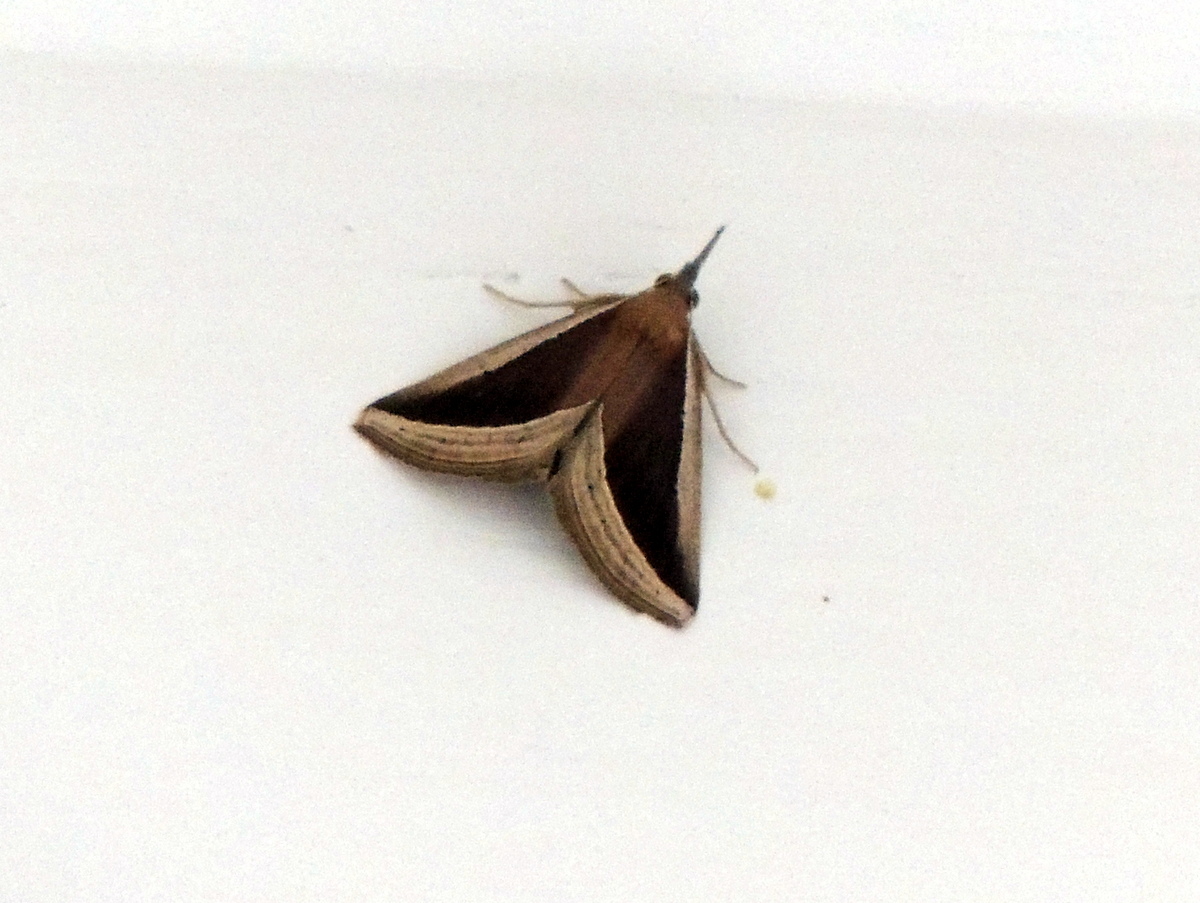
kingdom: Animalia
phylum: Arthropoda
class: Insecta
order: Lepidoptera
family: Erebidae
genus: Hypena
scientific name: Hypena conscitalis
